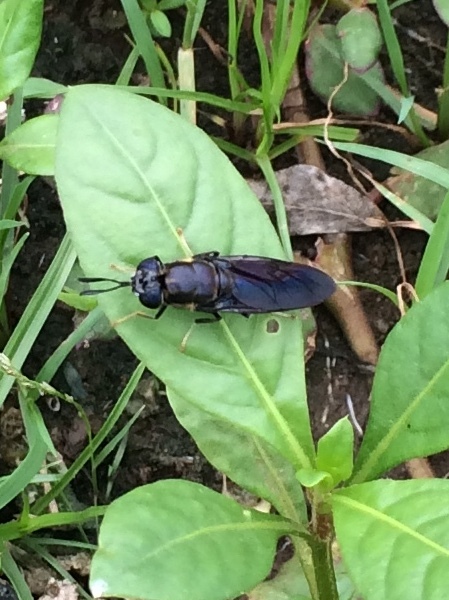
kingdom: Animalia
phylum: Arthropoda
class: Insecta
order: Diptera
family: Stratiomyidae
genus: Hermetia
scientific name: Hermetia illucens
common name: Black soldier fly
